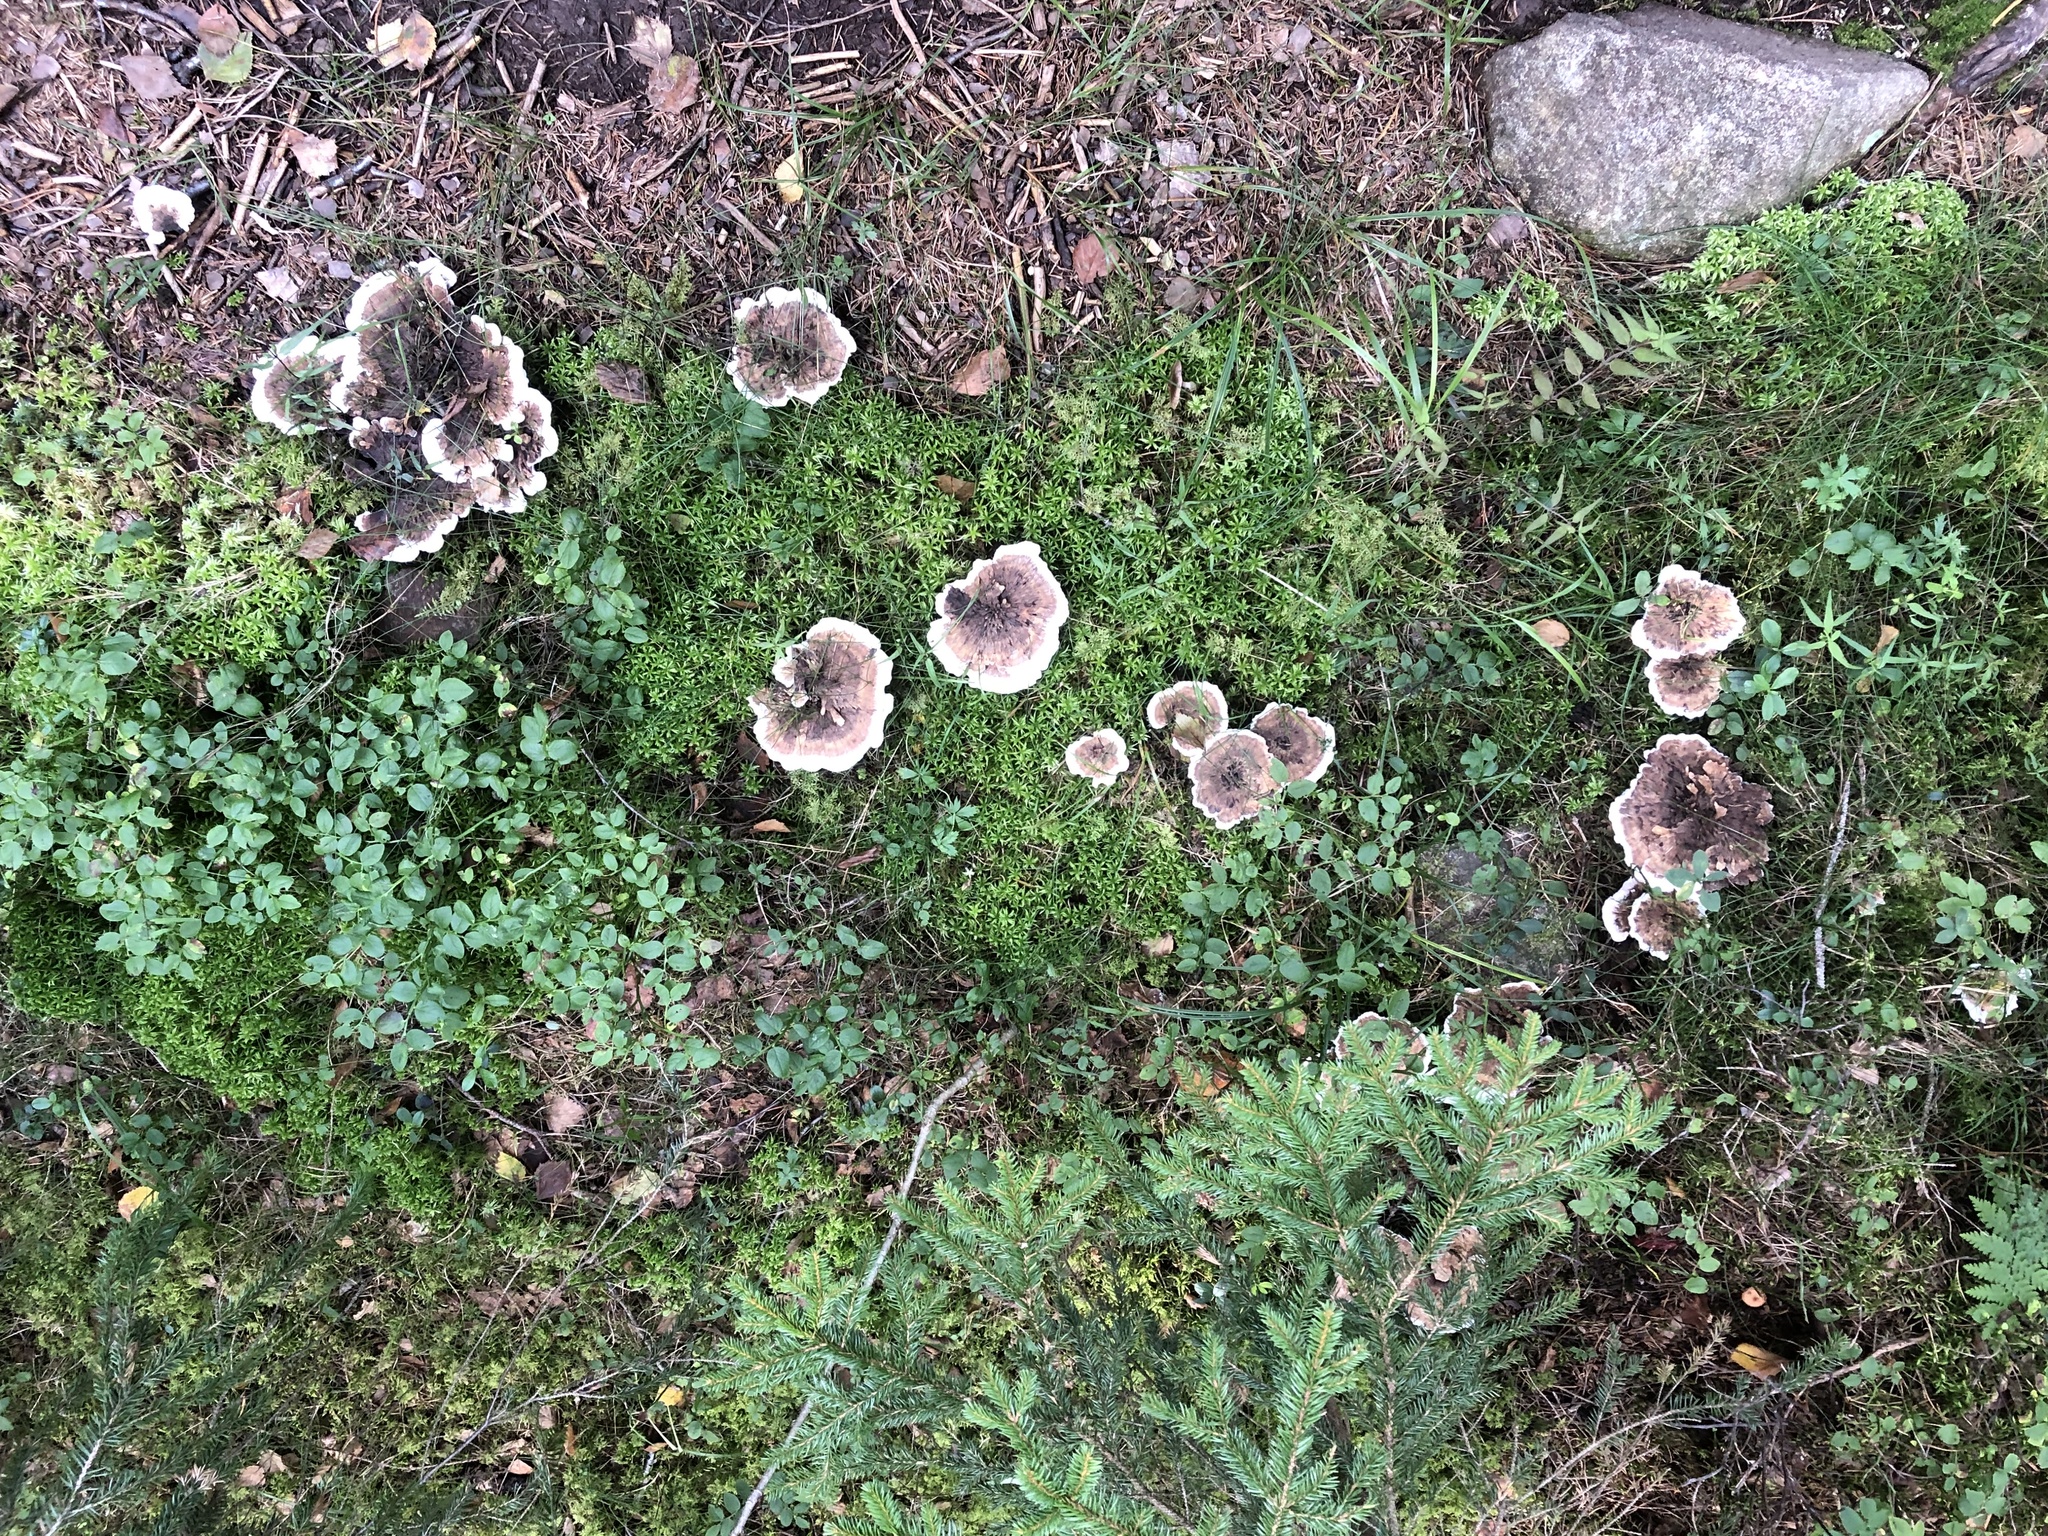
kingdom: Fungi
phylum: Basidiomycota
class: Agaricomycetes
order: Thelephorales
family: Bankeraceae
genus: Hydnellum
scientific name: Hydnellum suaveolens
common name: Sweetgrass hydnellum
